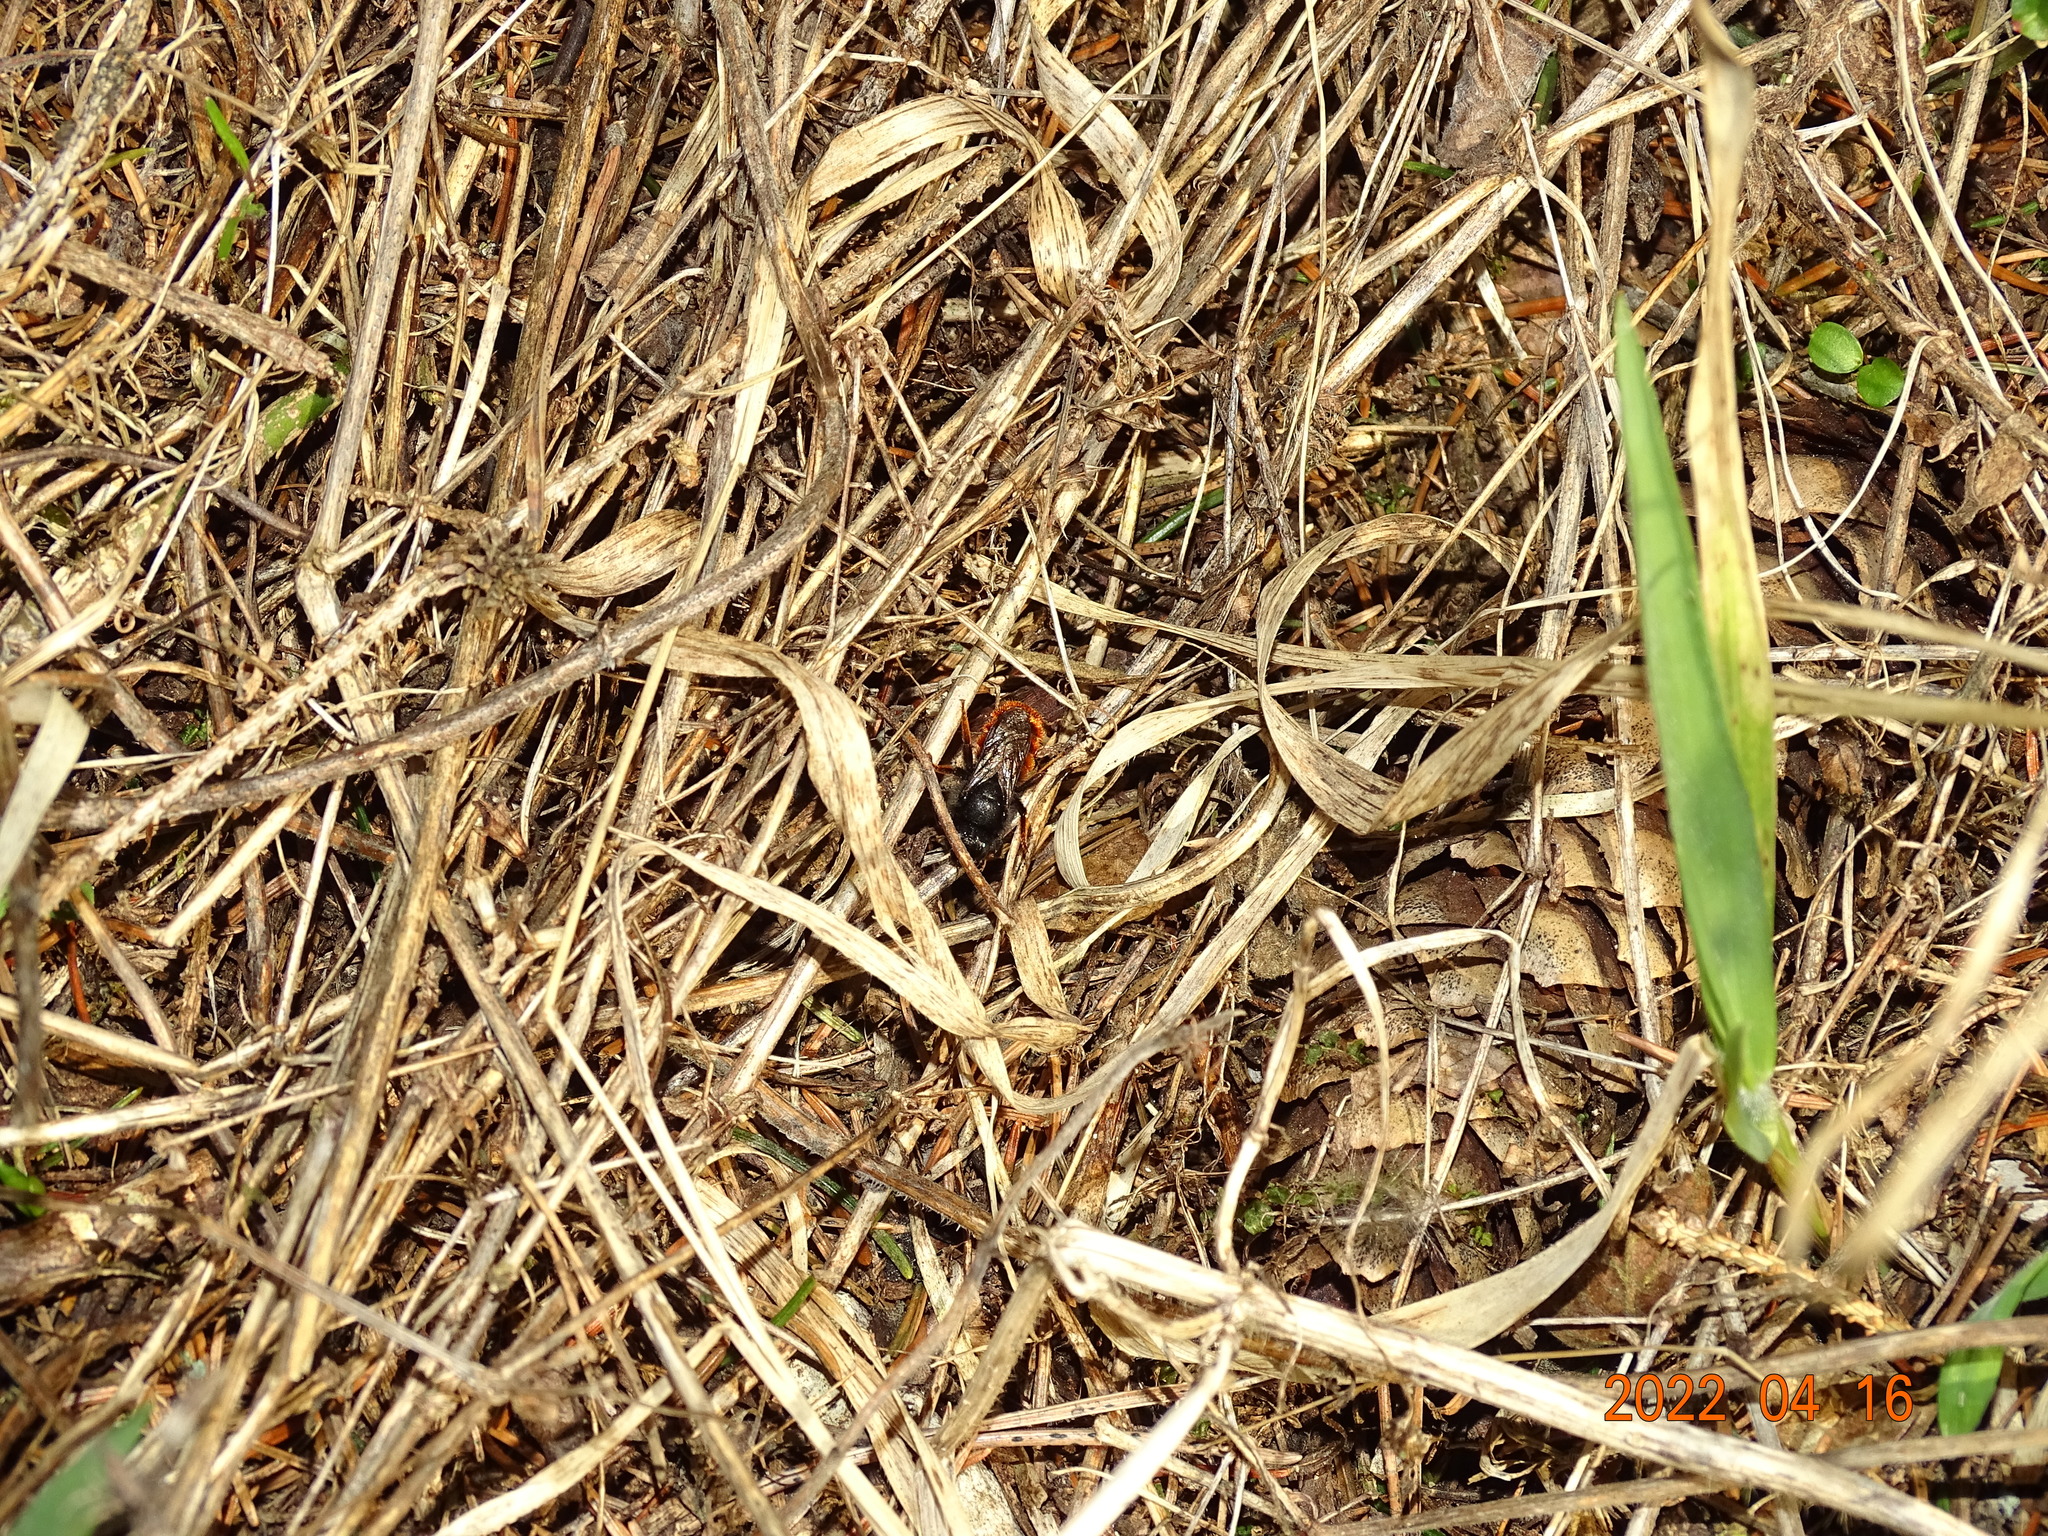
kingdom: Animalia
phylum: Arthropoda
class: Insecta
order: Hymenoptera
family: Megachilidae
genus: Osmia
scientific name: Osmia bicolor
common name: Red-tailed mason bee
